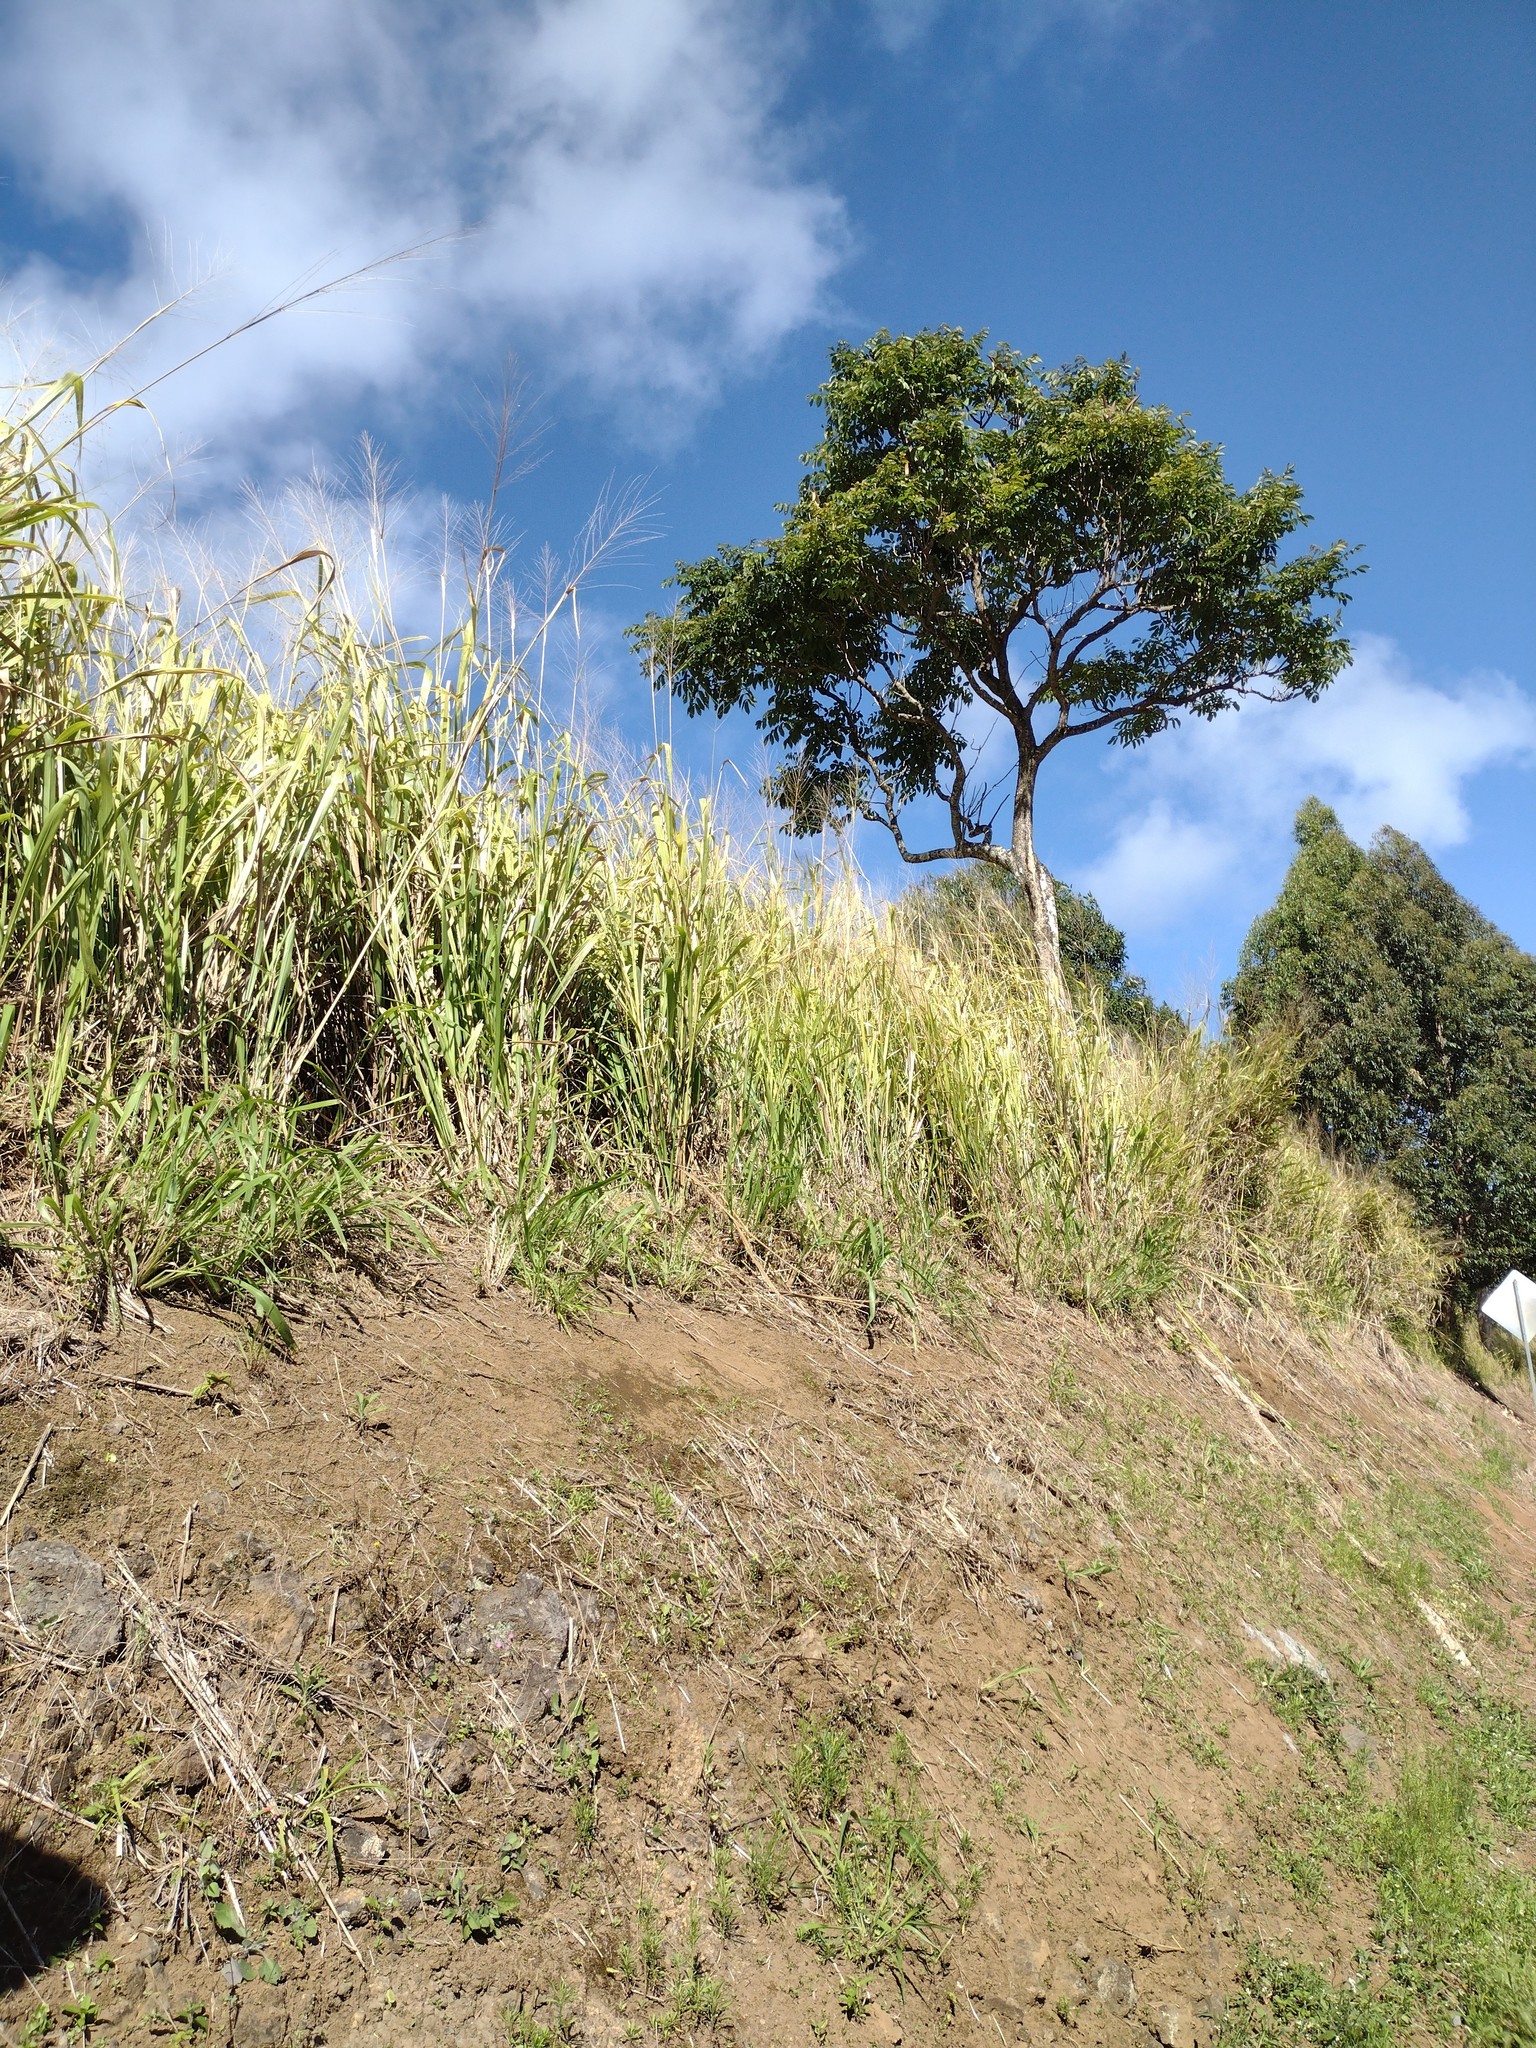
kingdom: Plantae
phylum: Tracheophyta
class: Liliopsida
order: Poales
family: Poaceae
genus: Megathyrsus
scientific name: Megathyrsus maximus
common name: Guineagrass
